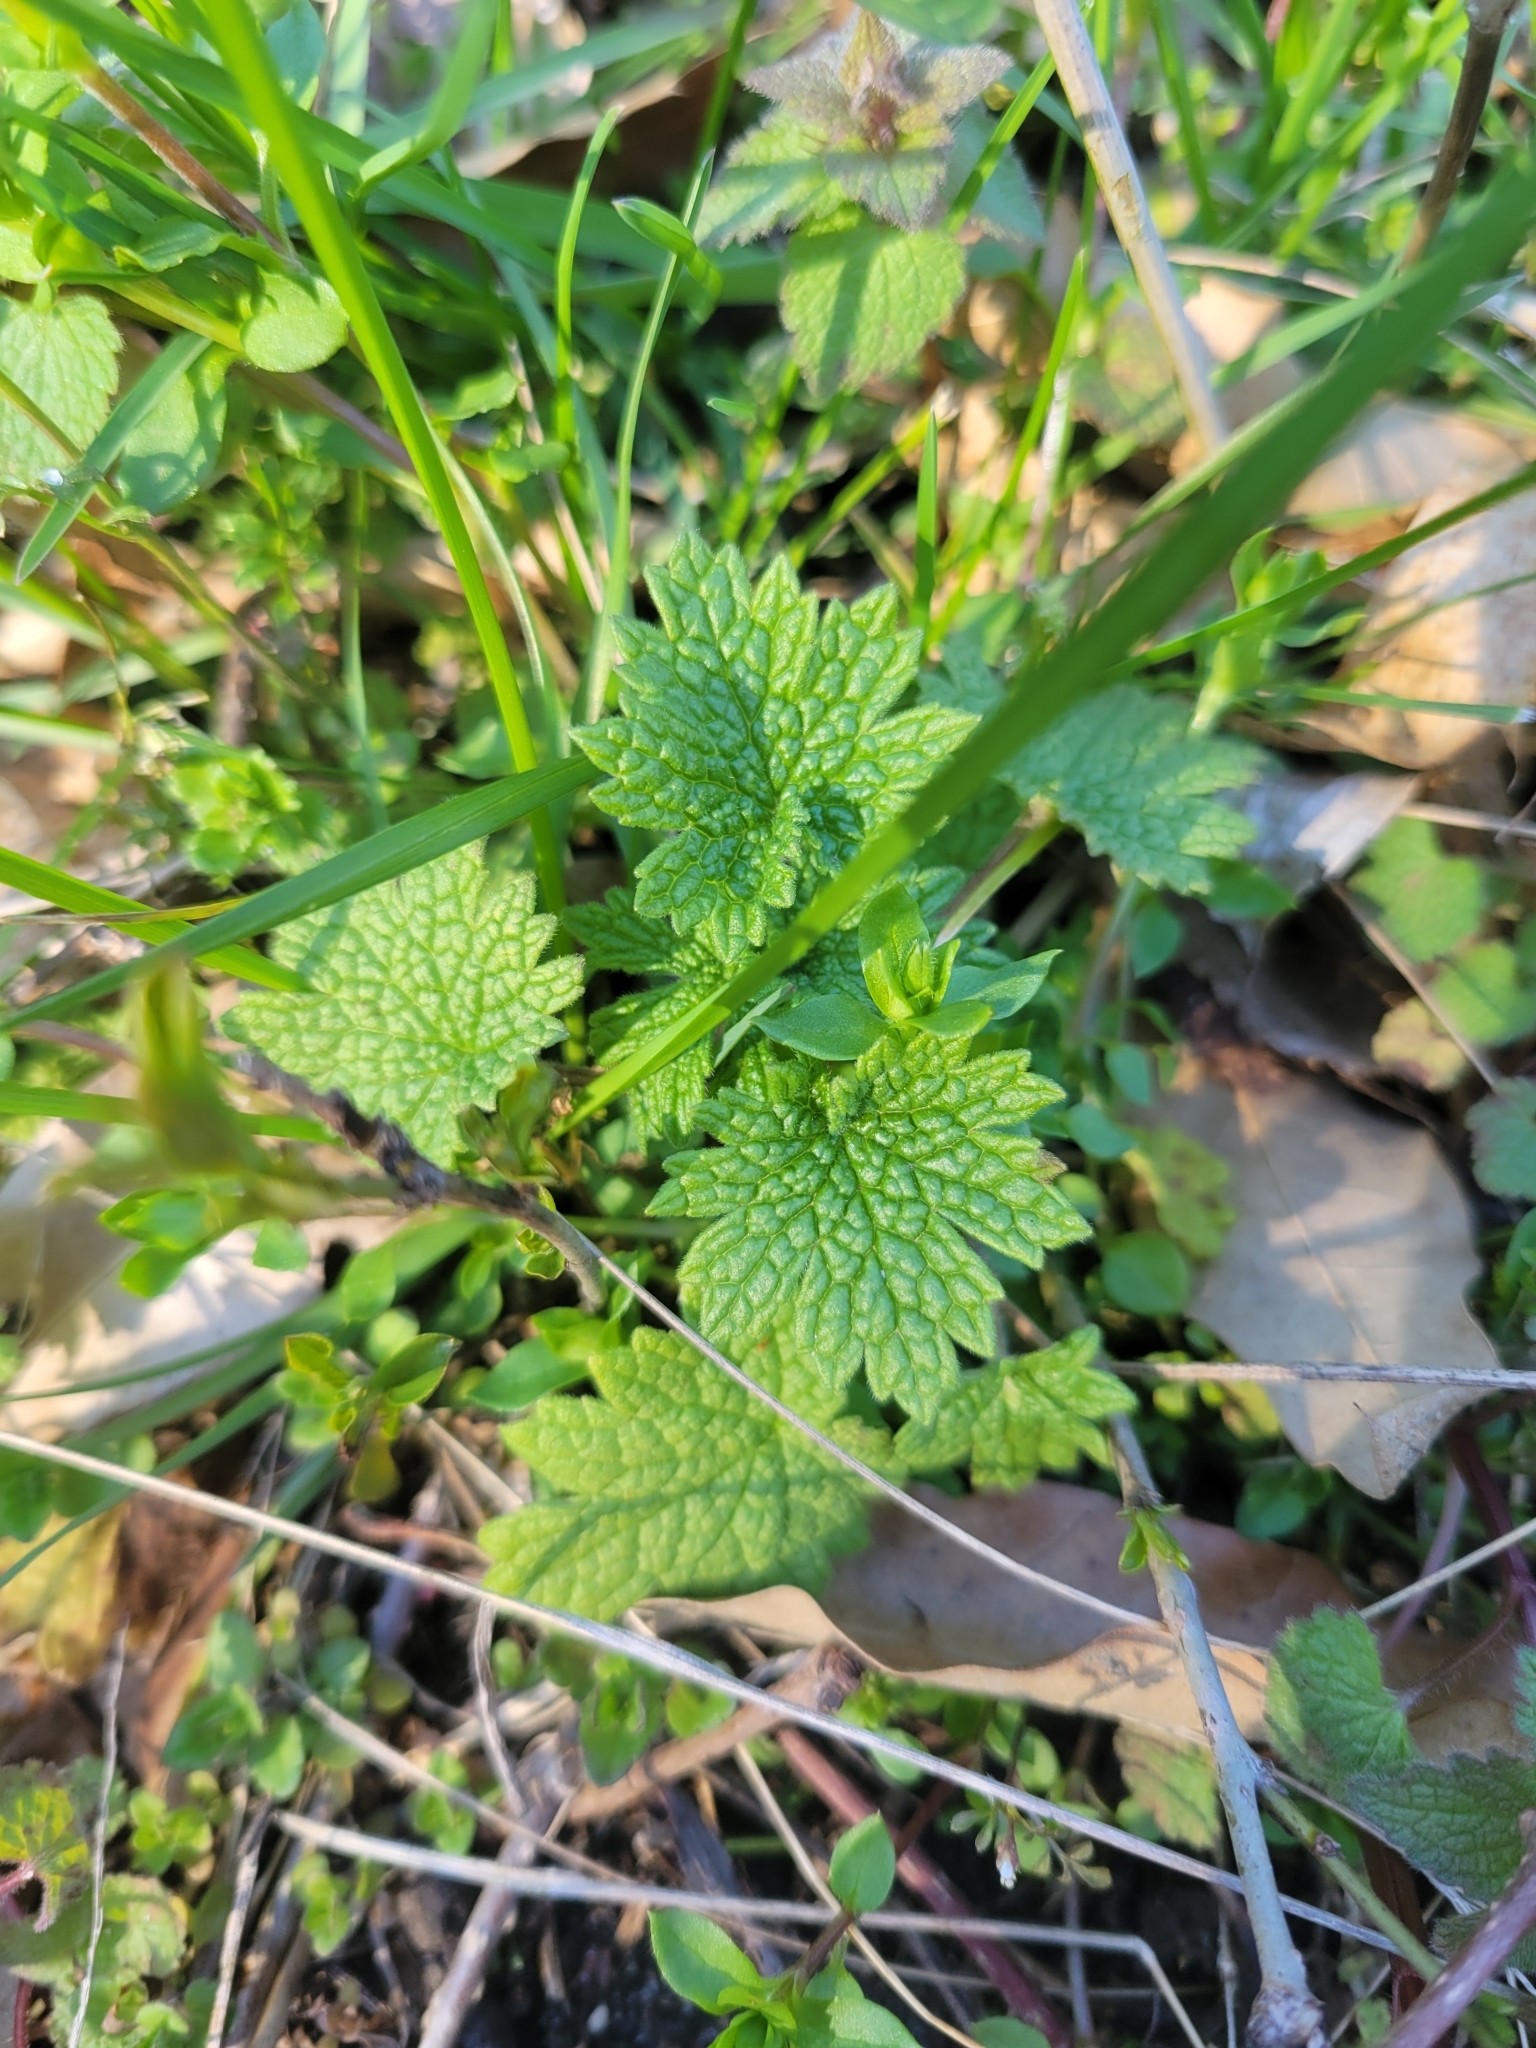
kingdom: Plantae
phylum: Tracheophyta
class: Magnoliopsida
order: Lamiales
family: Lamiaceae
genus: Leonurus
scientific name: Leonurus cardiaca
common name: Motherwort
